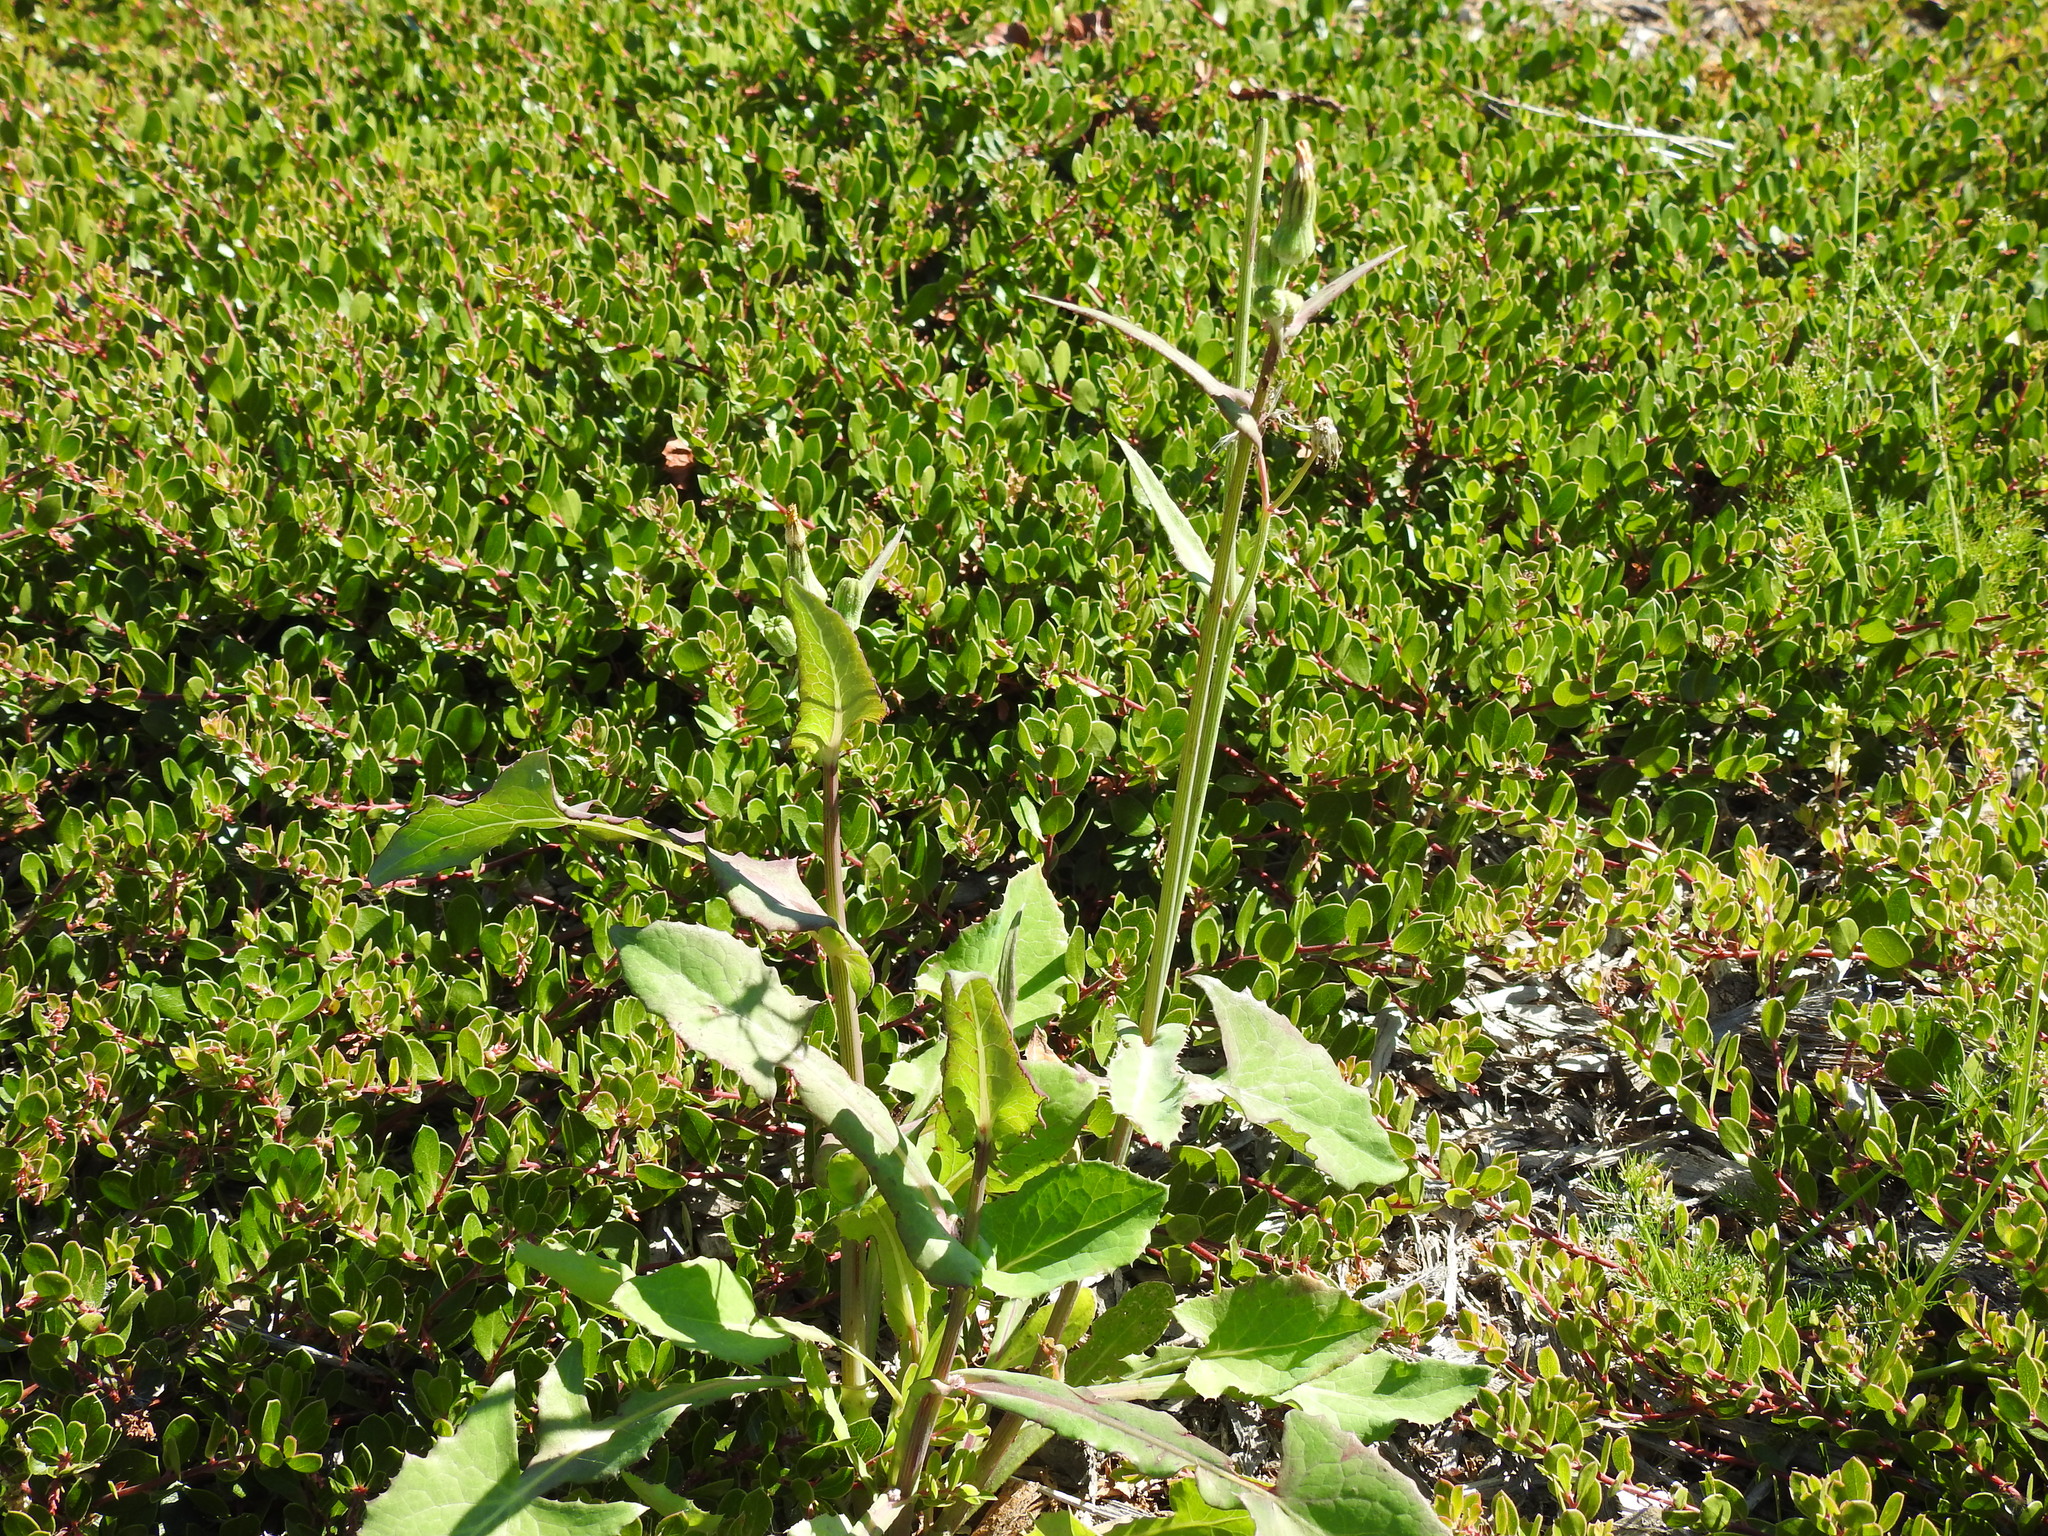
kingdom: Plantae
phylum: Tracheophyta
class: Magnoliopsida
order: Asterales
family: Asteraceae
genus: Sonchus
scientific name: Sonchus oleraceus
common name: Common sowthistle
